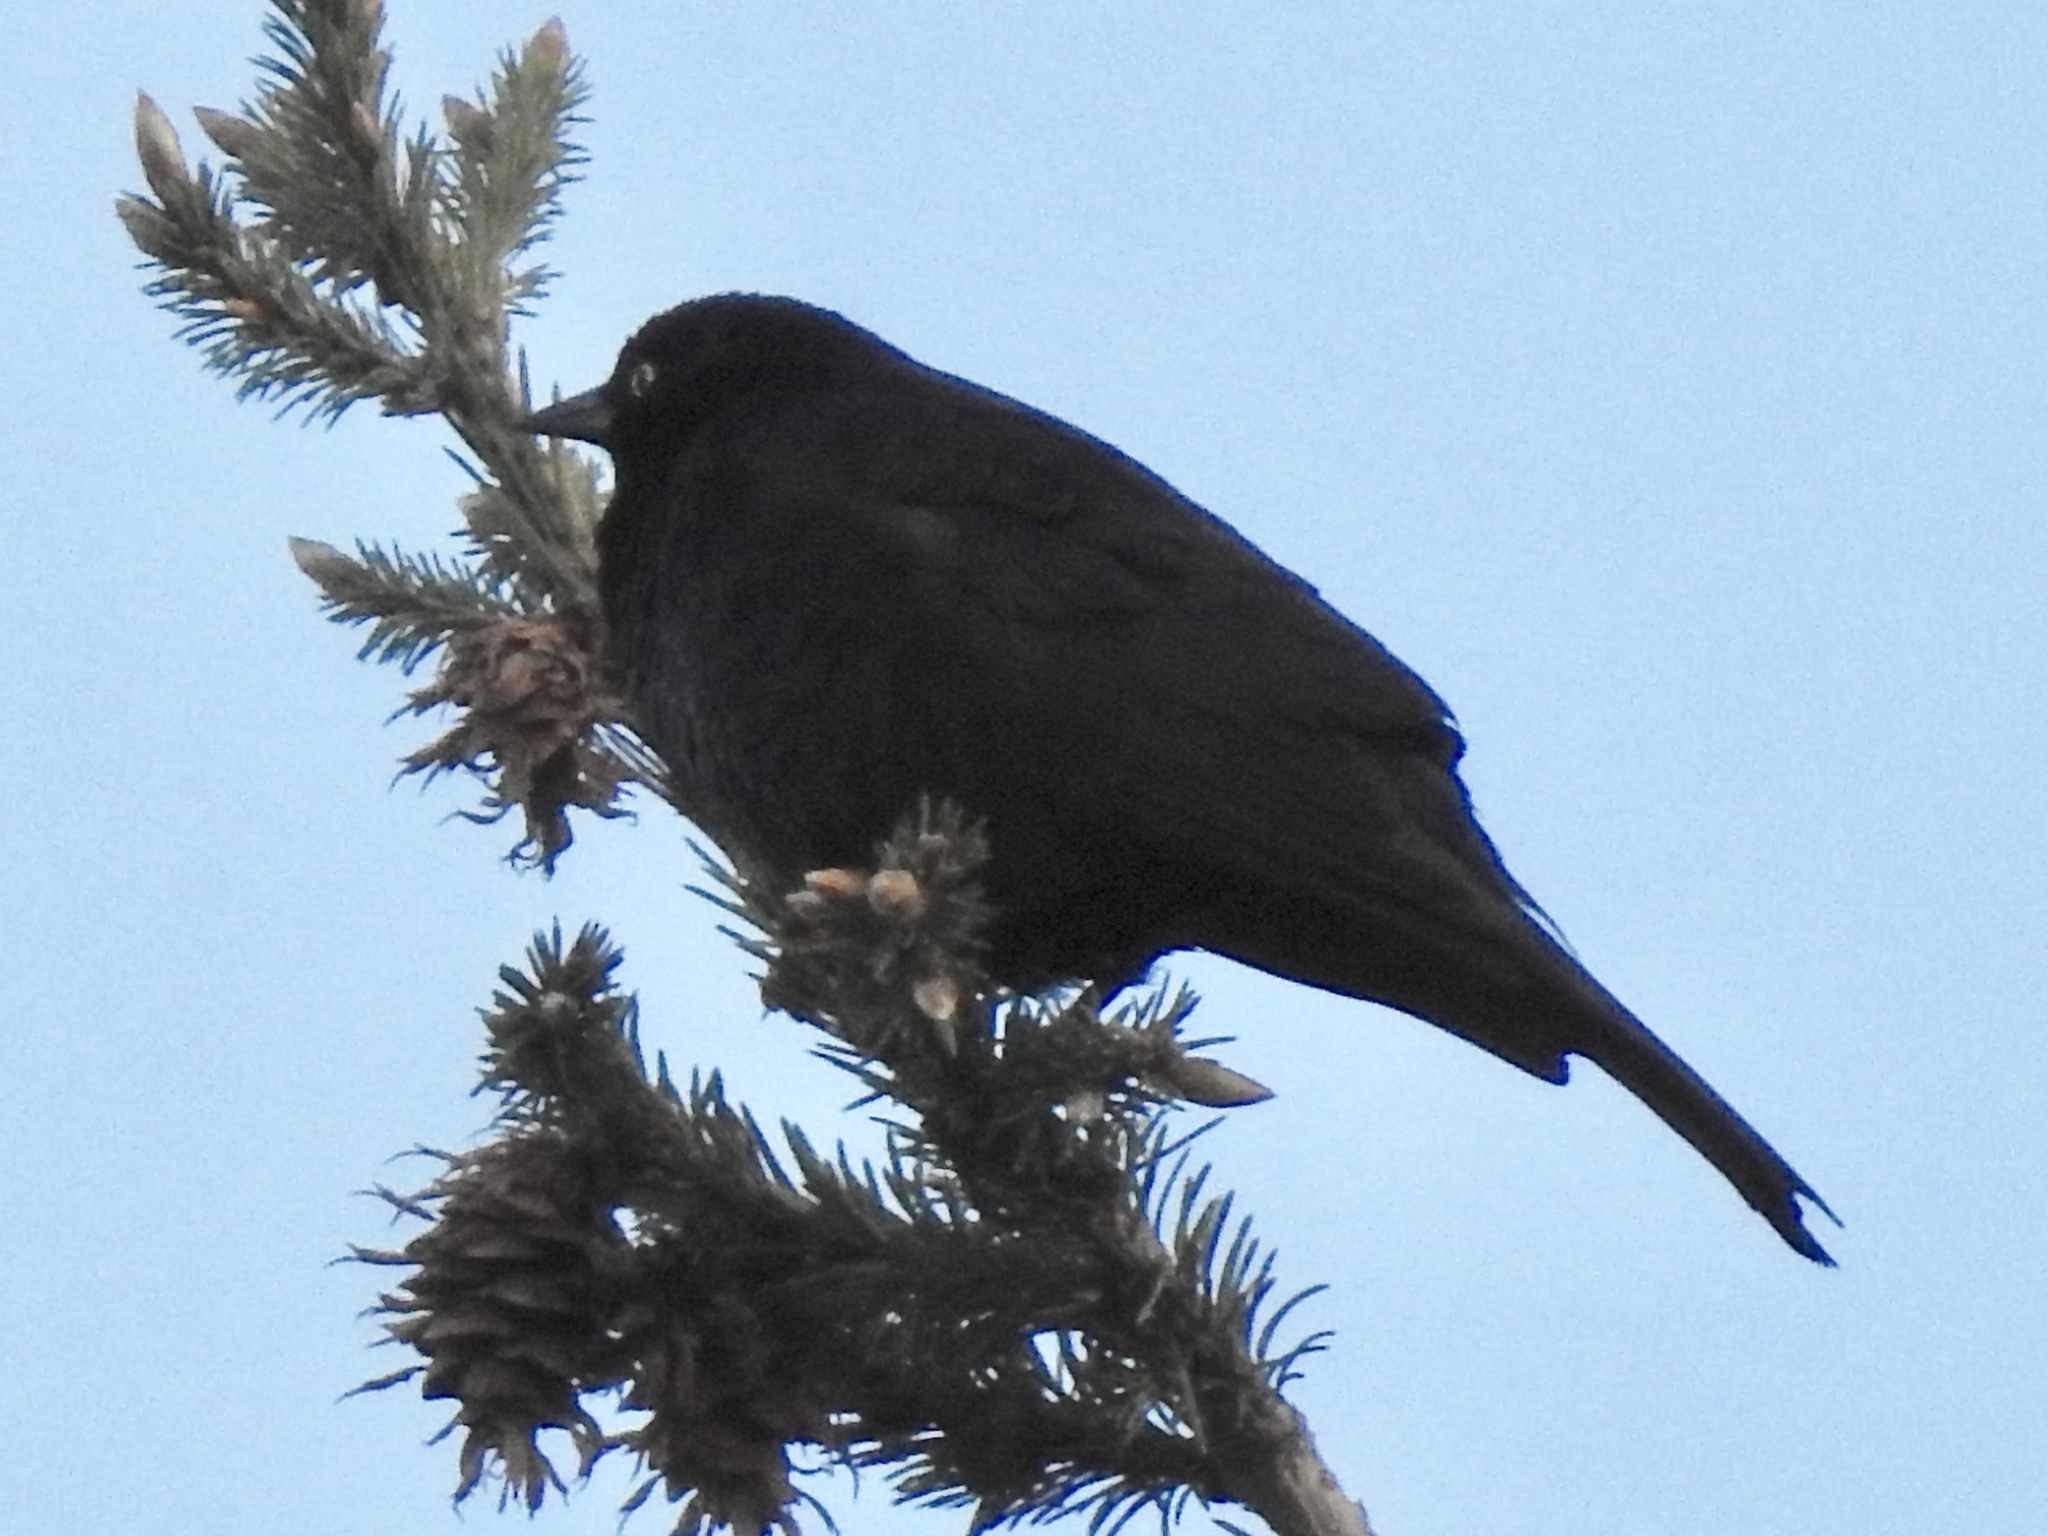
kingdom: Animalia
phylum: Chordata
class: Aves
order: Passeriformes
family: Icteridae
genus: Euphagus
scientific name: Euphagus cyanocephalus
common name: Brewer's blackbird
